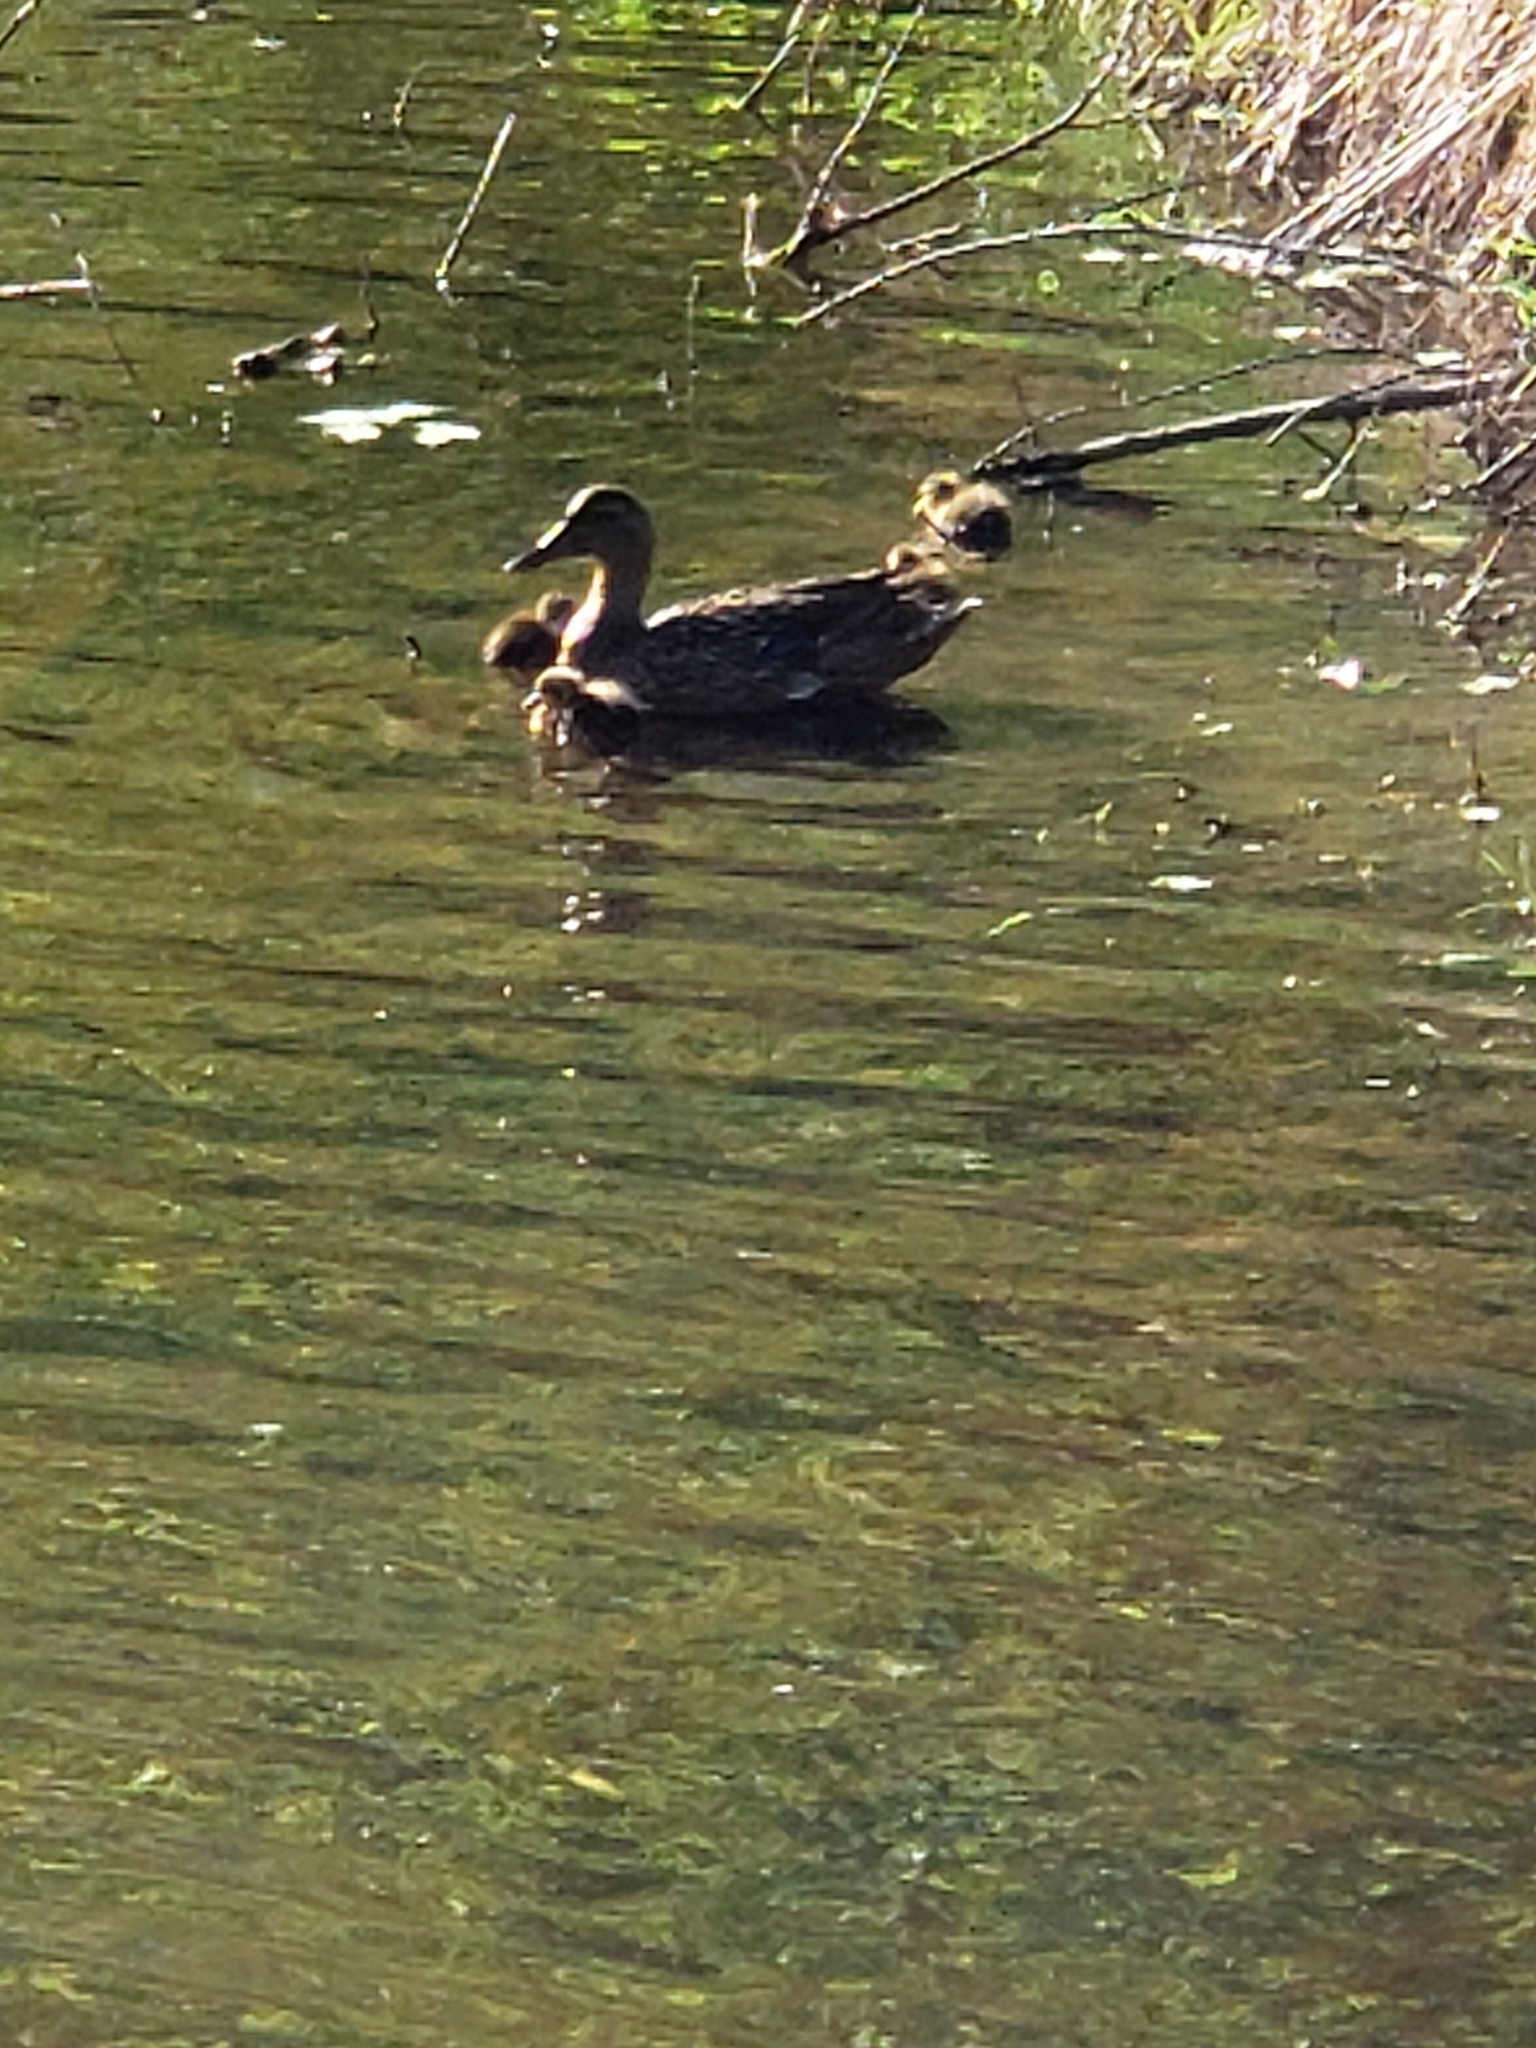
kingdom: Animalia
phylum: Chordata
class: Aves
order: Anseriformes
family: Anatidae
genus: Anas
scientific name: Anas platyrhynchos
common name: Mallard
